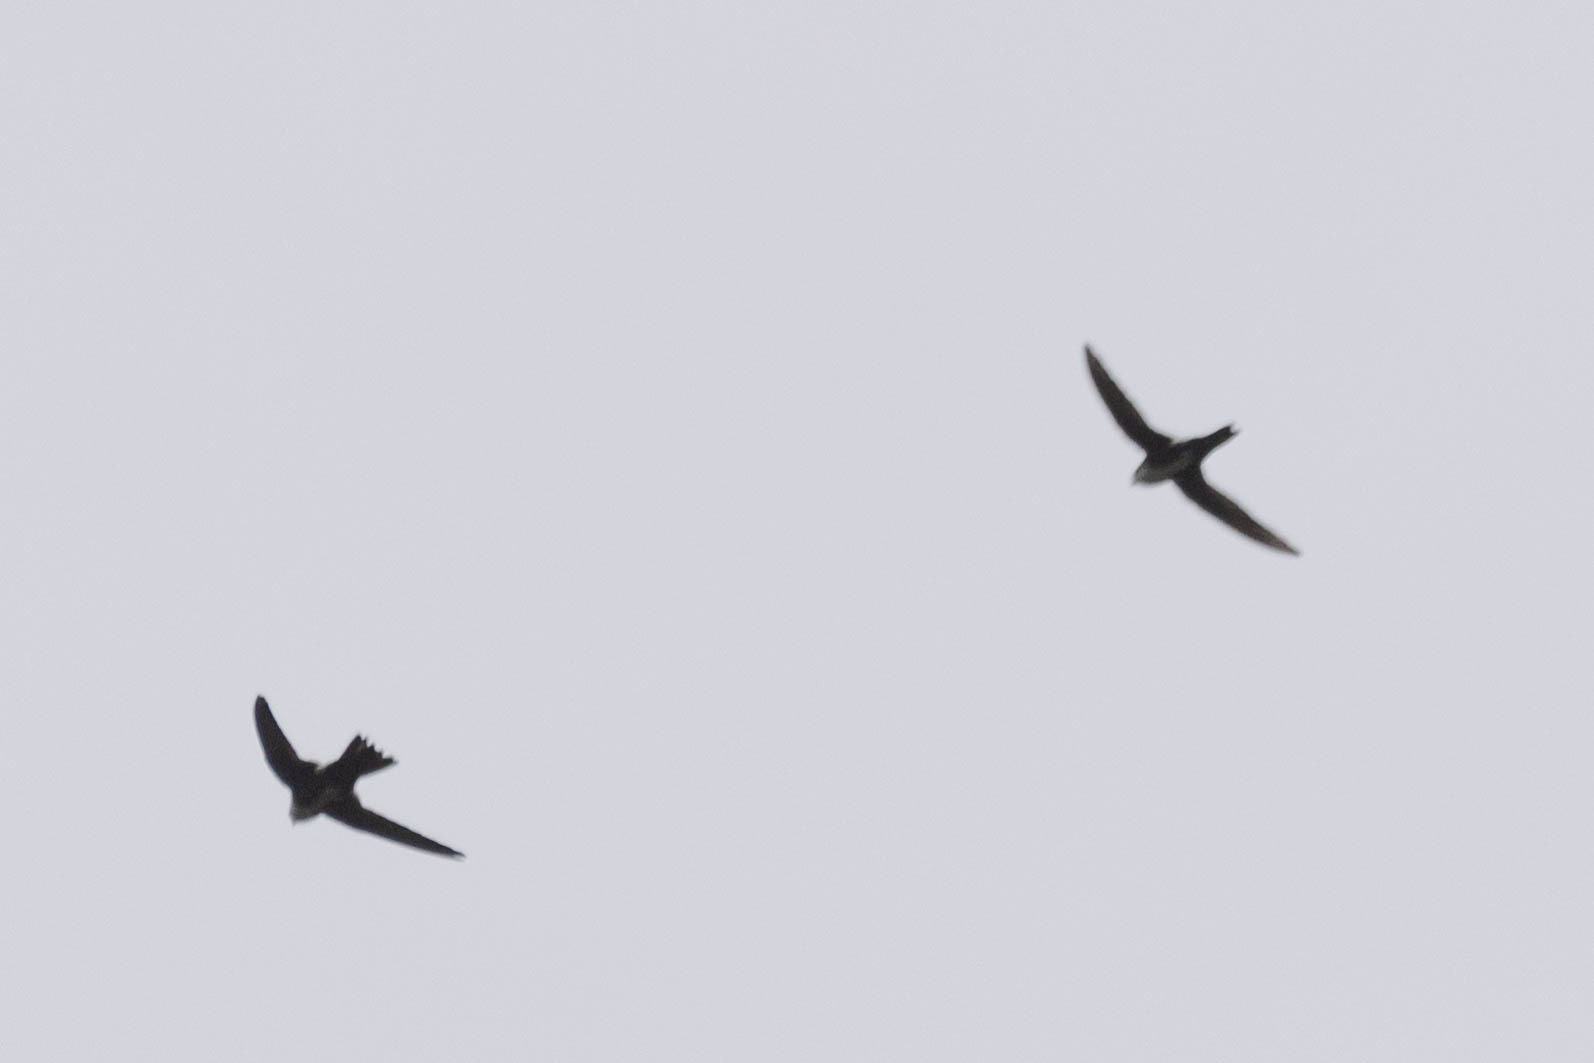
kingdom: Animalia
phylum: Chordata
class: Aves
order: Apodiformes
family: Apodidae
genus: Aeronautes
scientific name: Aeronautes saxatalis
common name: White-throated swift
